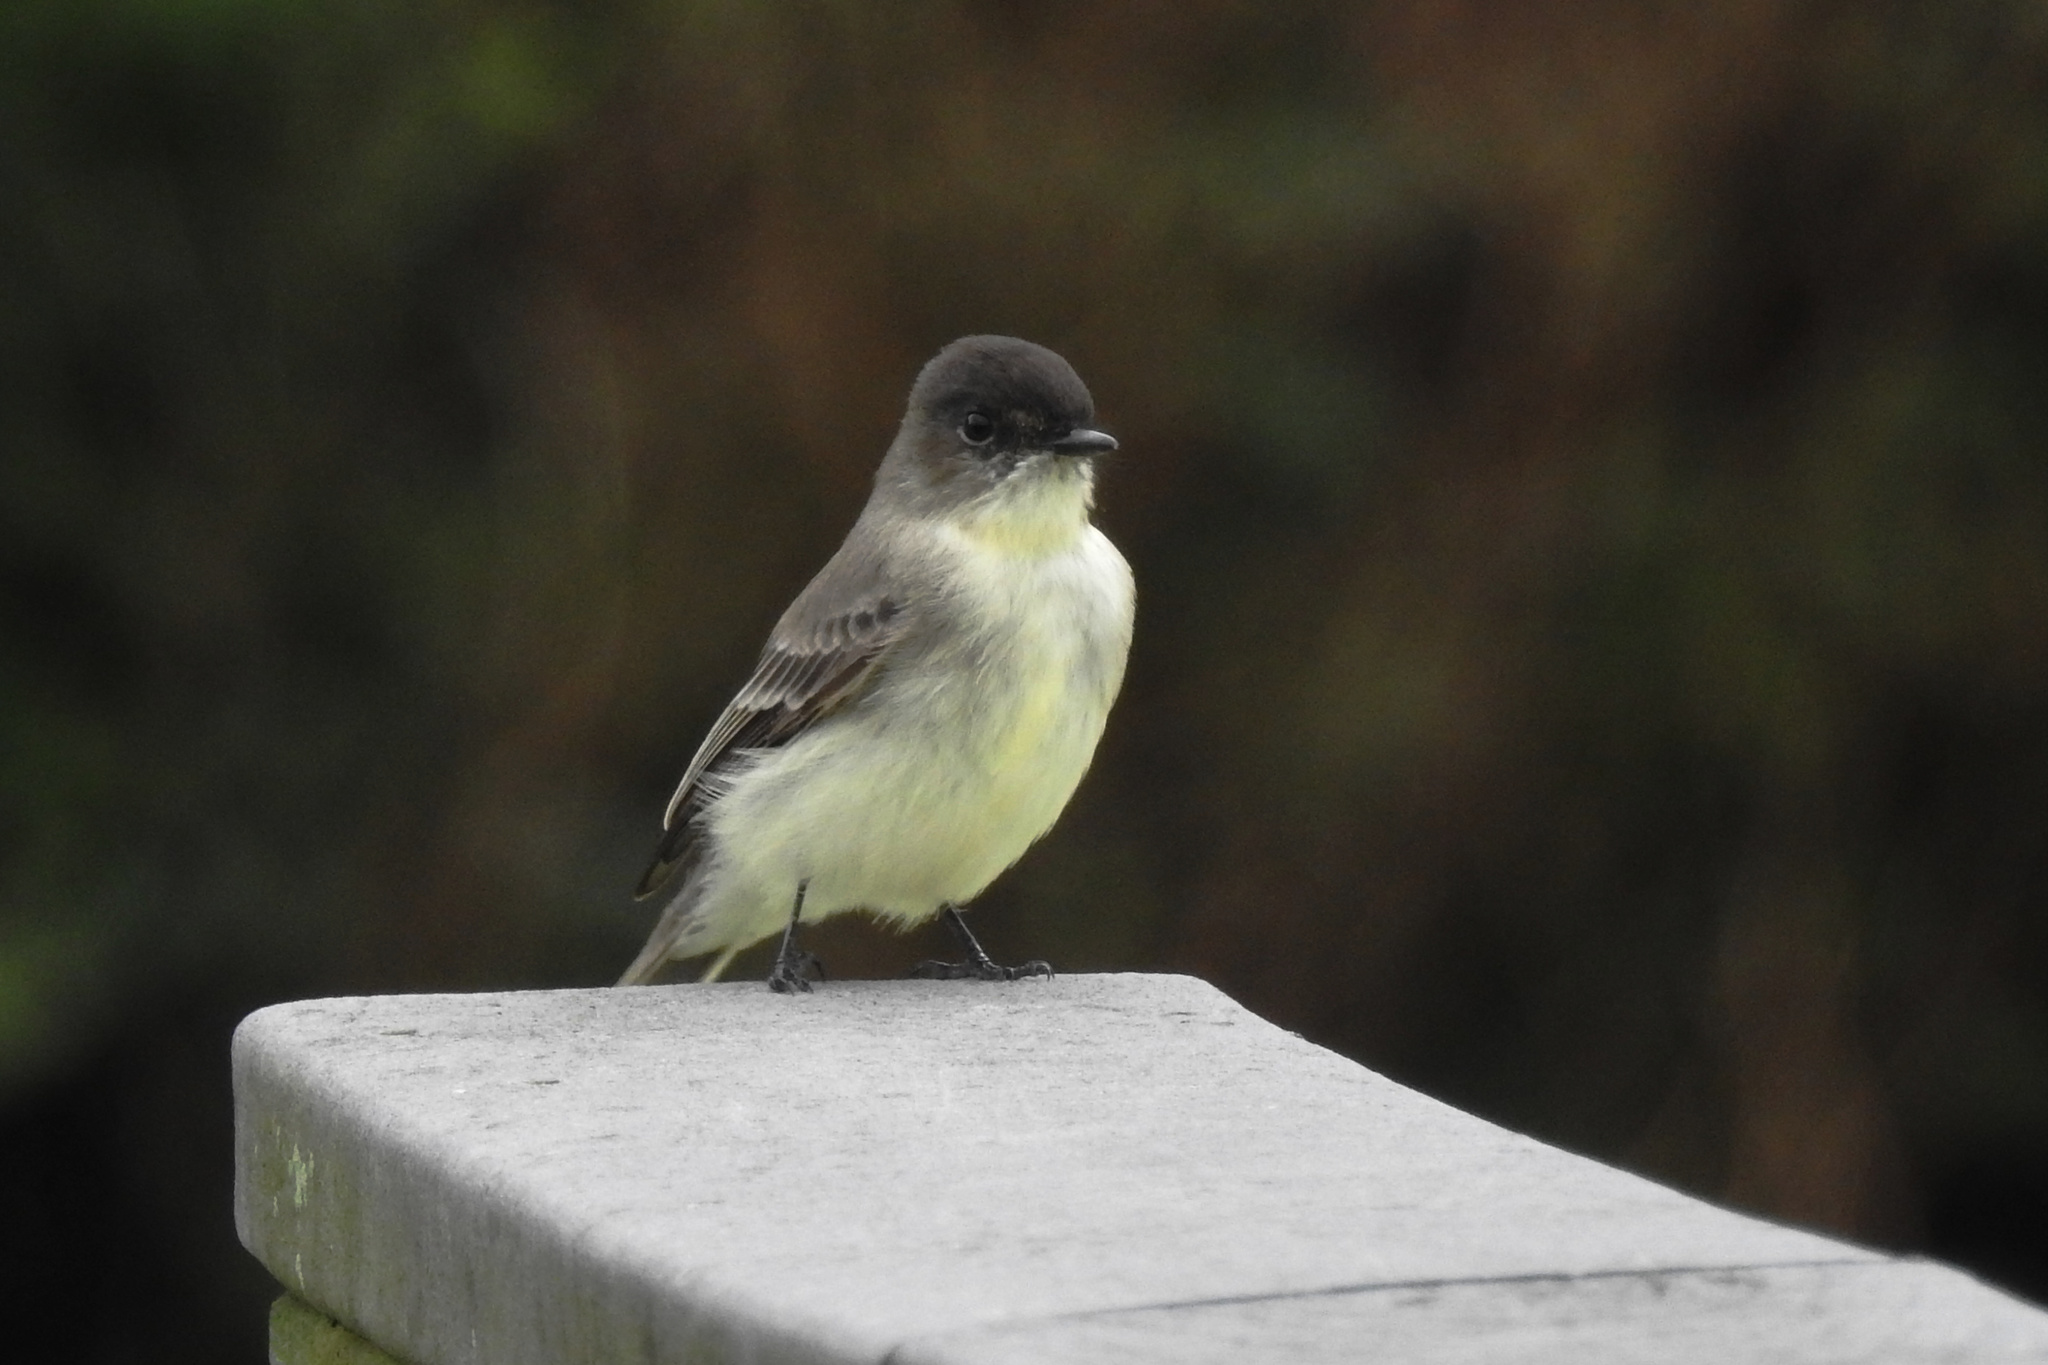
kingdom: Animalia
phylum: Chordata
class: Aves
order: Passeriformes
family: Tyrannidae
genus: Sayornis
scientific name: Sayornis phoebe
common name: Eastern phoebe
